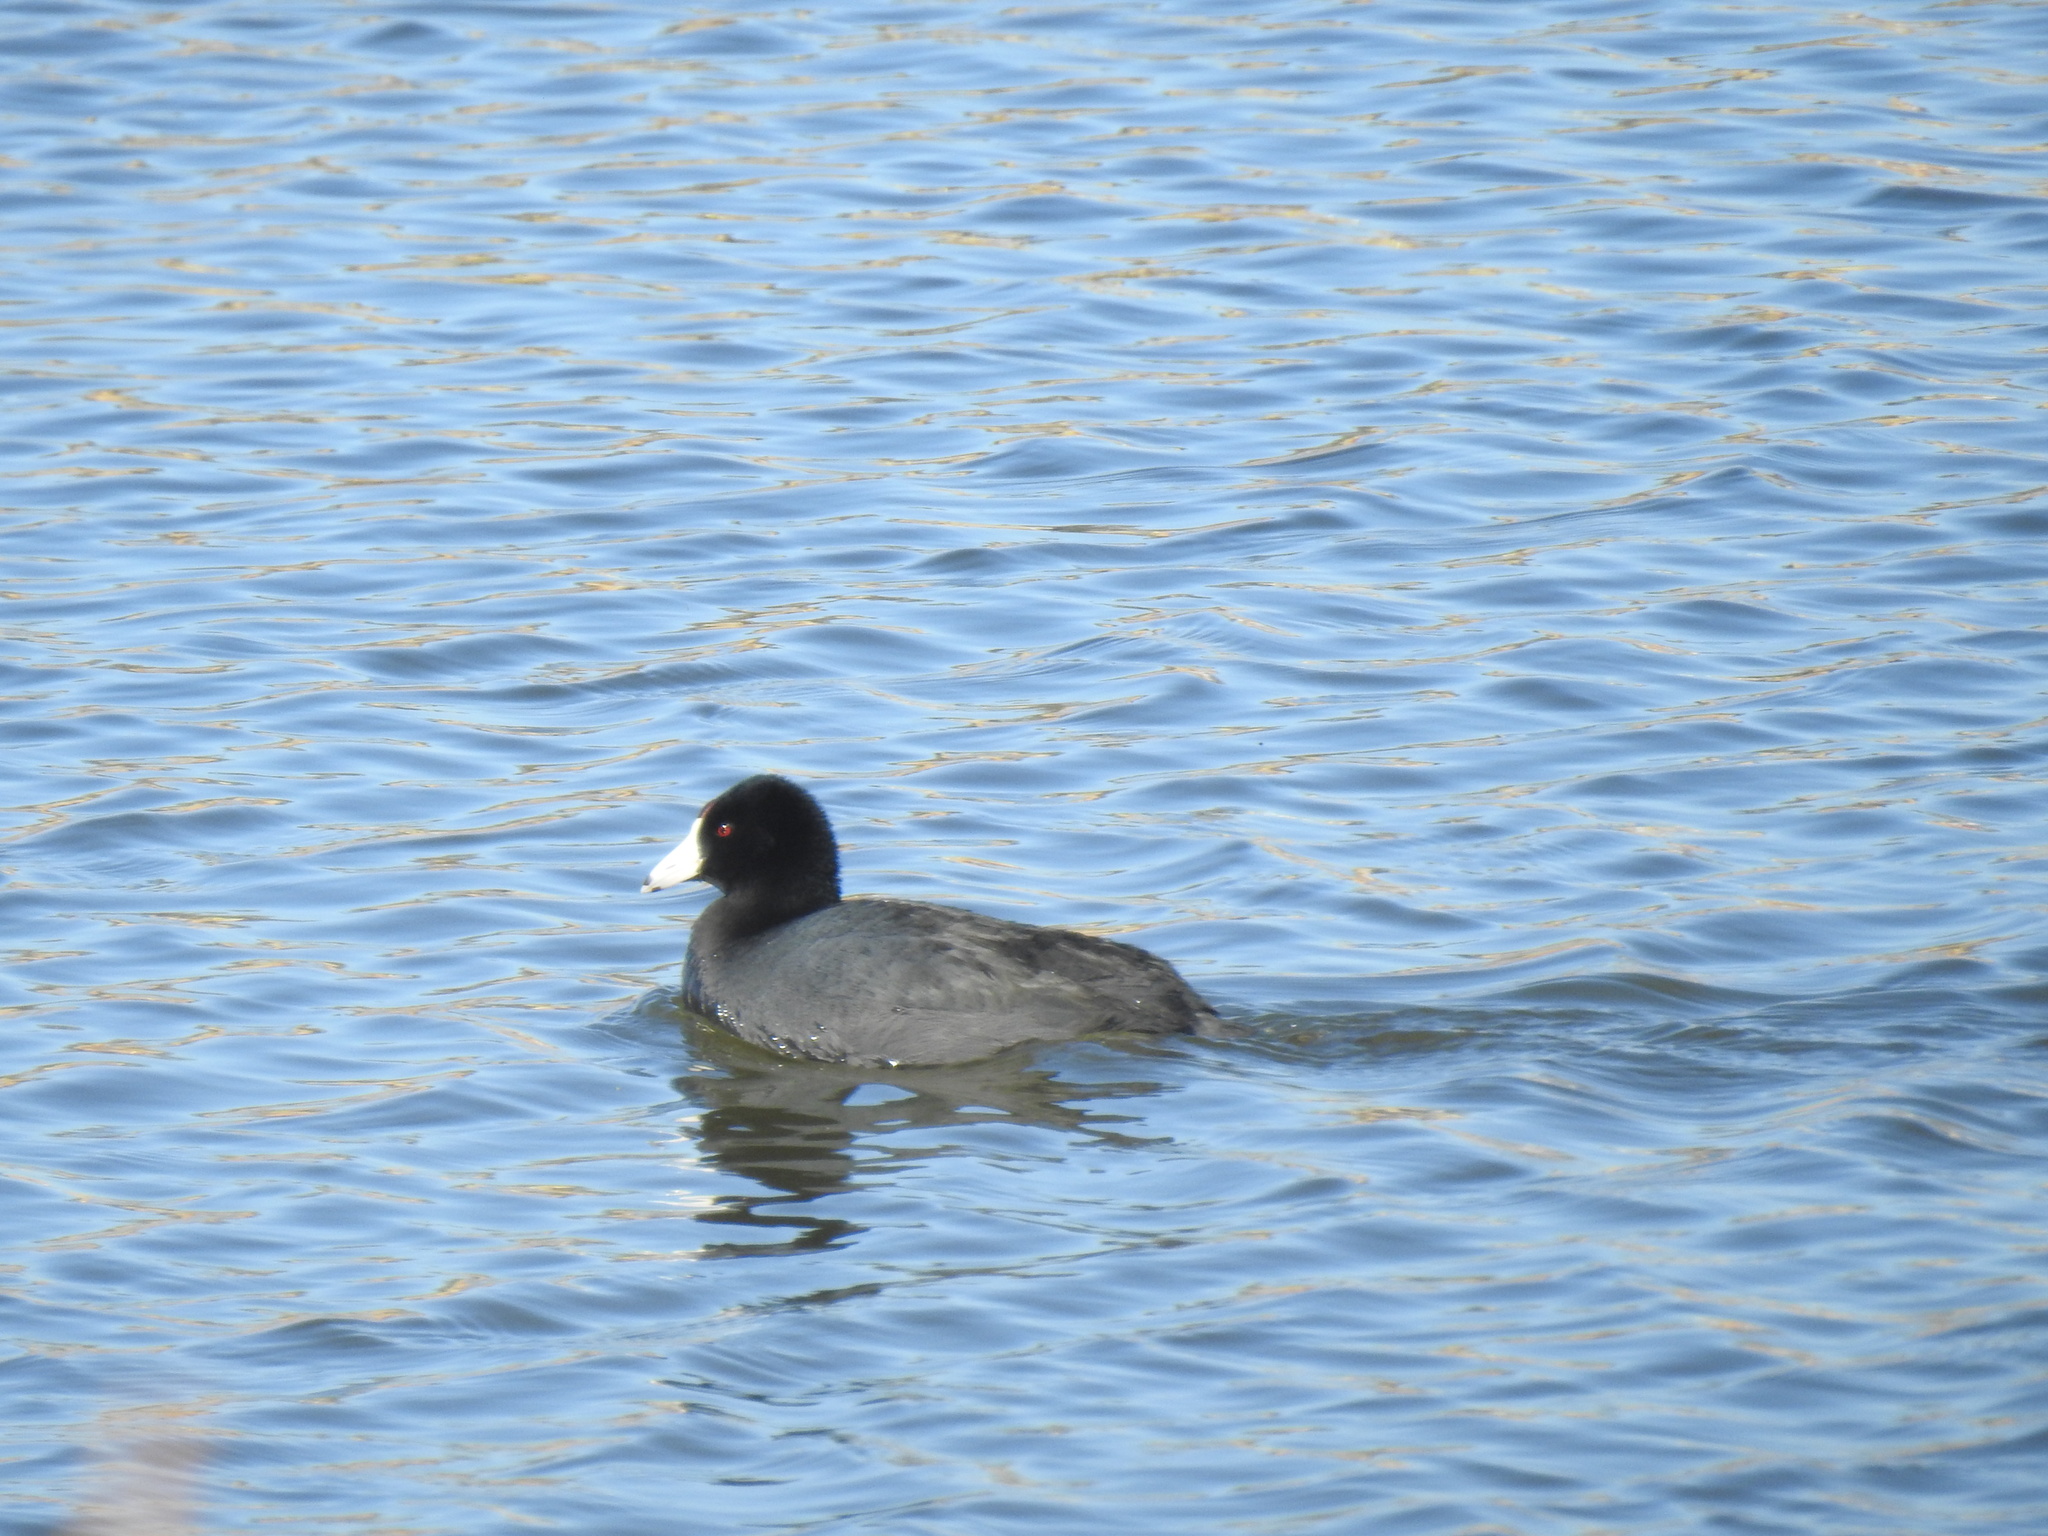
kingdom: Animalia
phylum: Chordata
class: Aves
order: Gruiformes
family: Rallidae
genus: Fulica
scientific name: Fulica americana
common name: American coot
